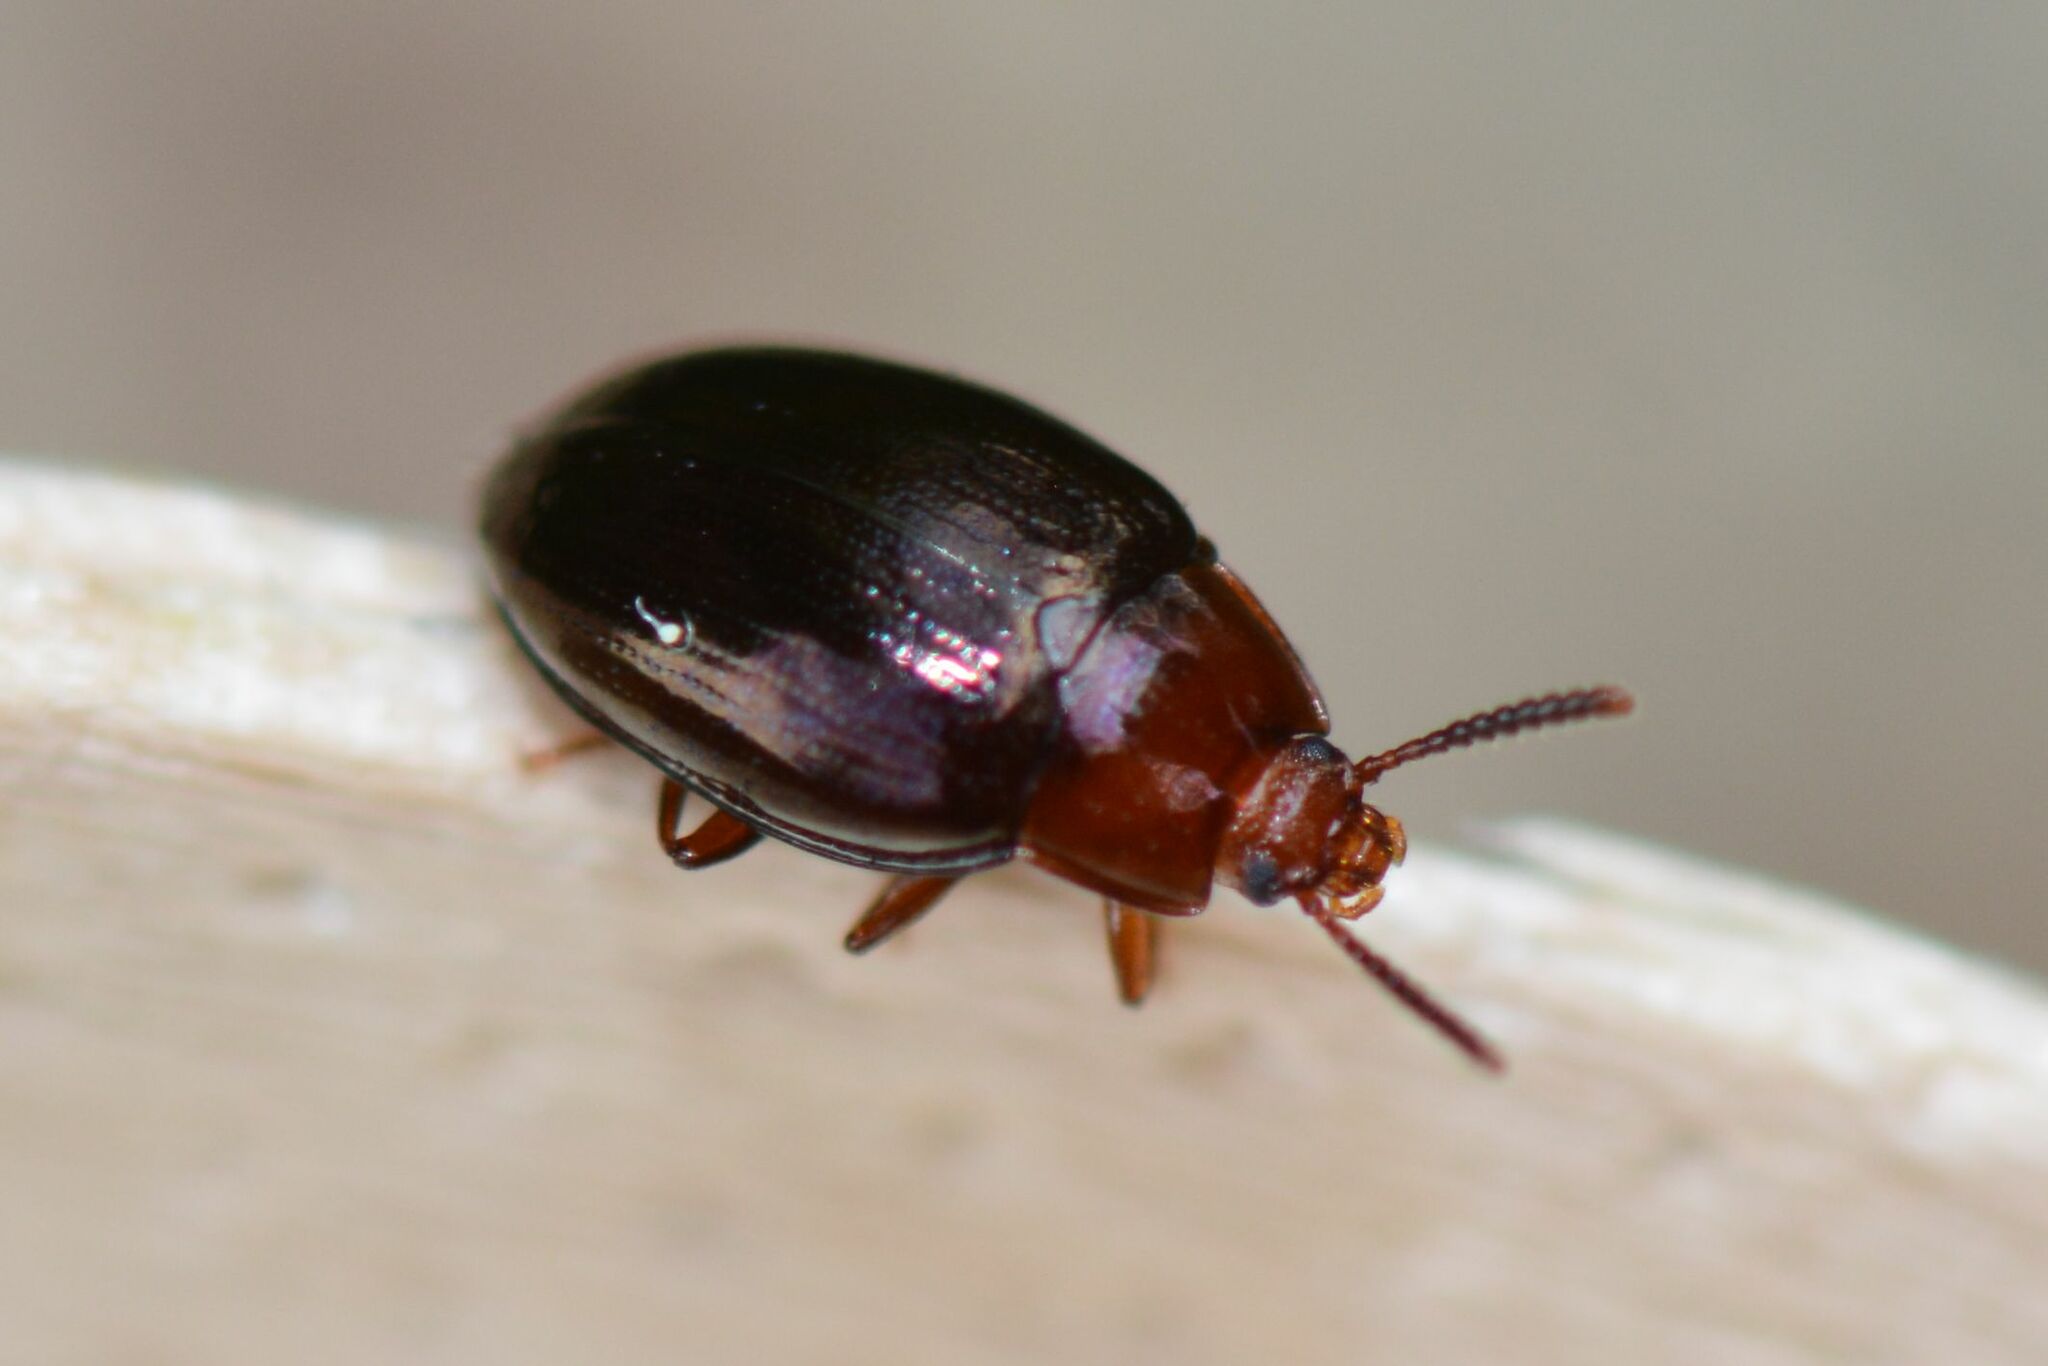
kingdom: Animalia
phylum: Arthropoda
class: Insecta
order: Coleoptera
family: Tenebrionidae
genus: Blapstinus
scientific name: Blapstinus metallicus
